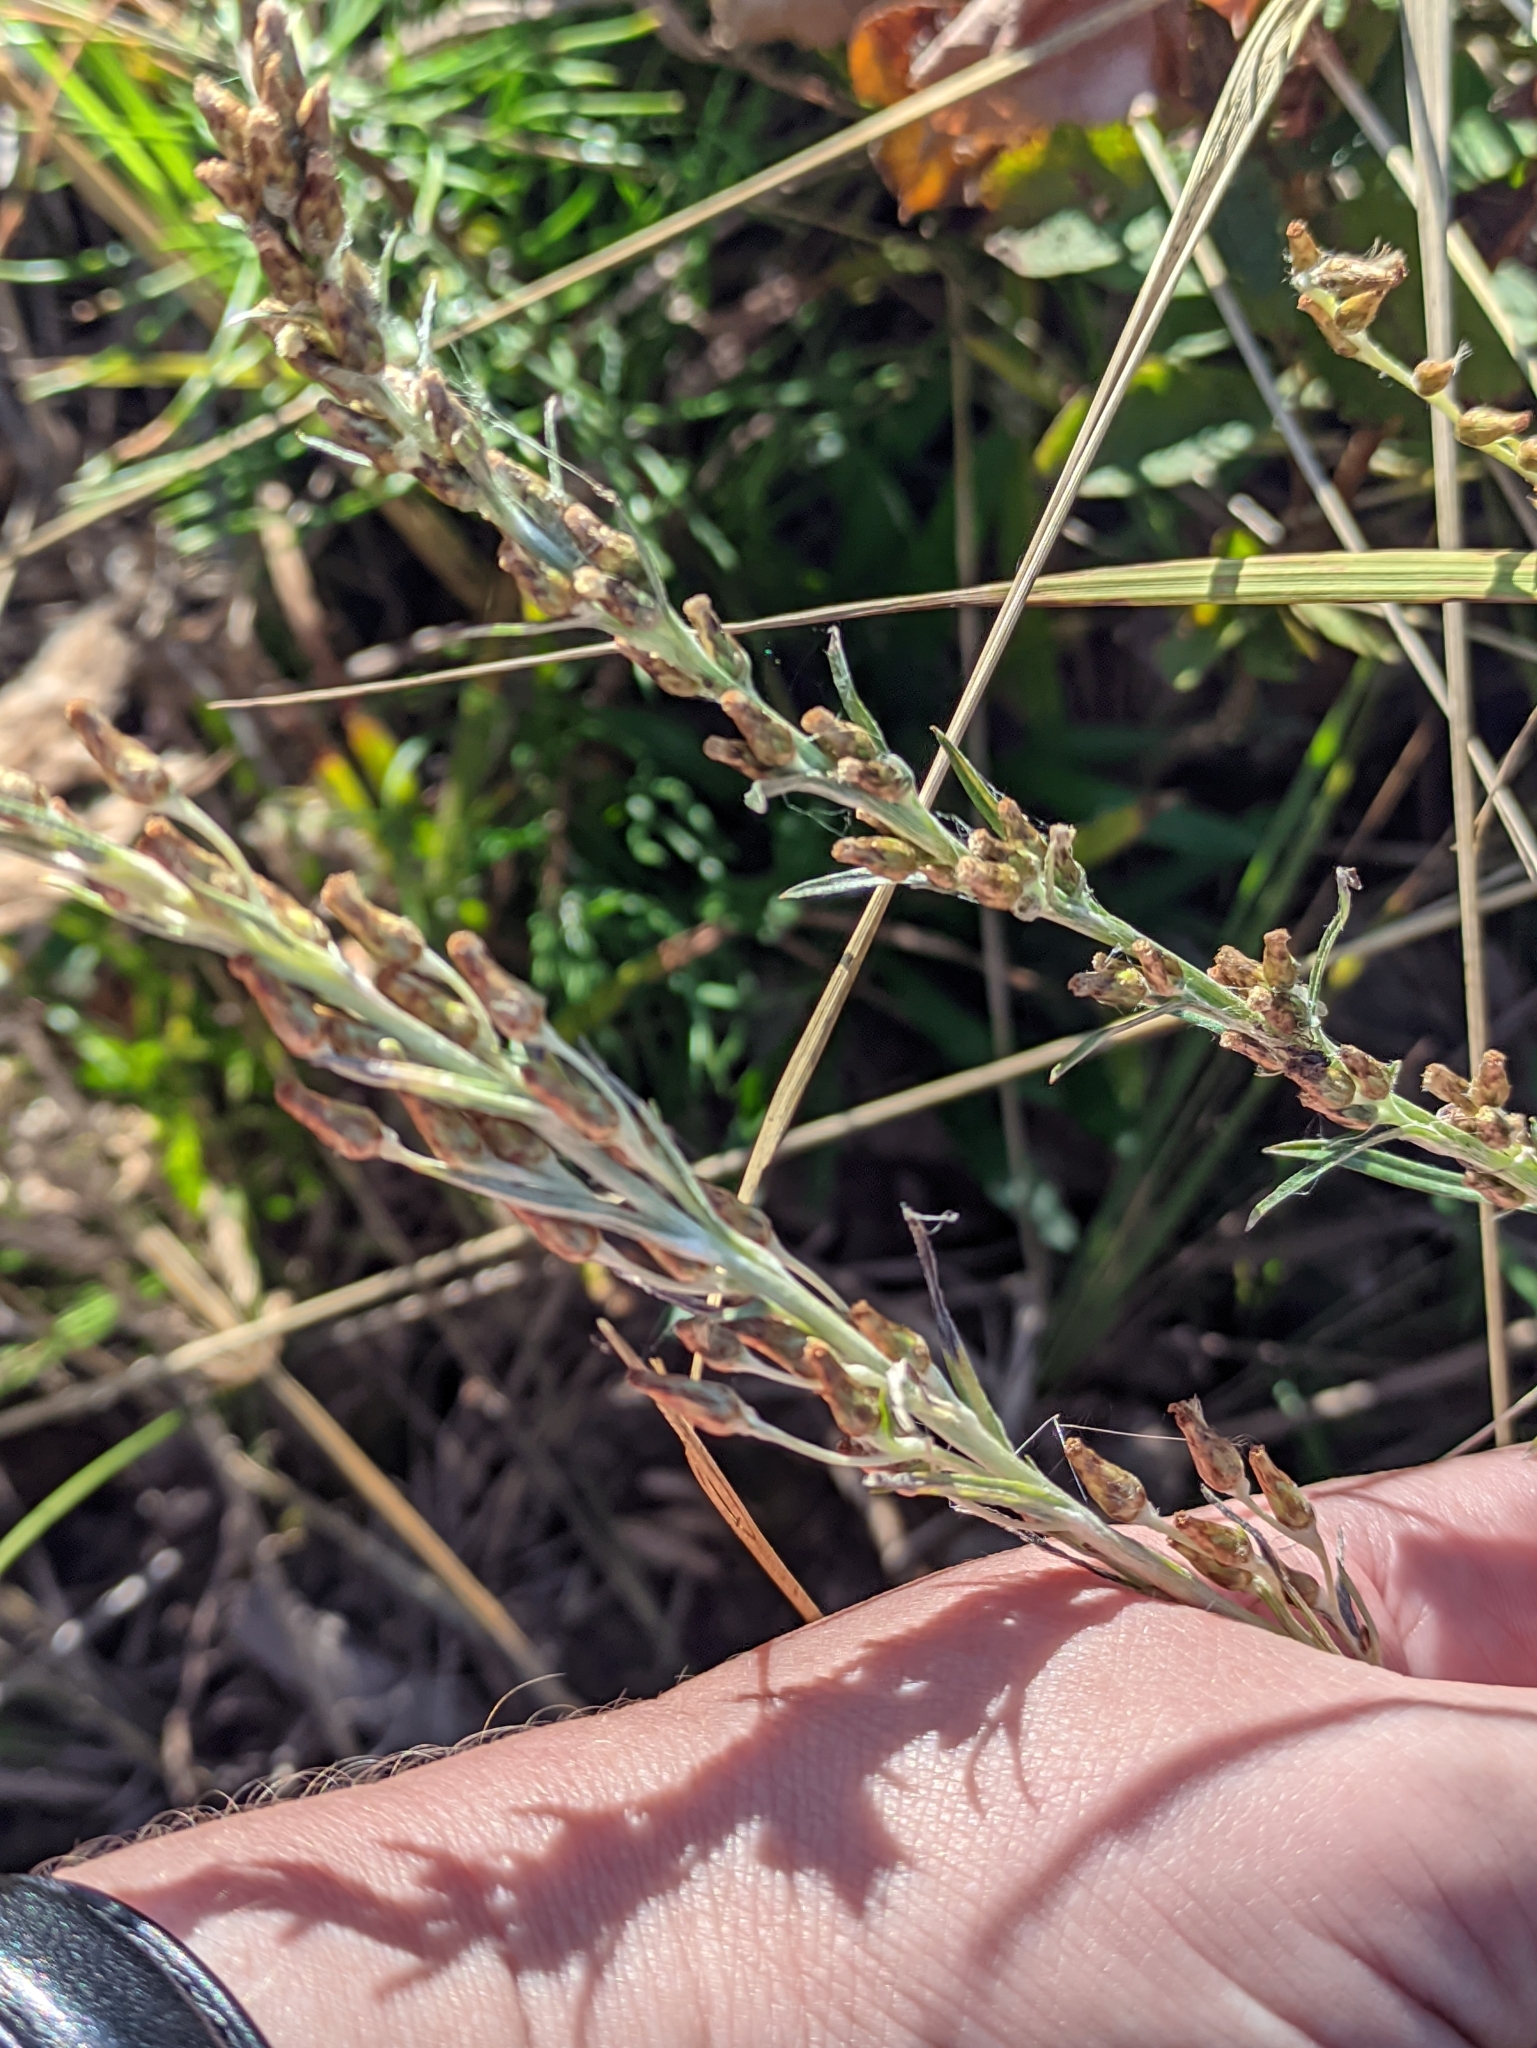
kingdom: Plantae
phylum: Tracheophyta
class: Magnoliopsida
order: Asterales
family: Asteraceae
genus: Omalotheca
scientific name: Omalotheca sylvatica
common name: Heath cudweed
